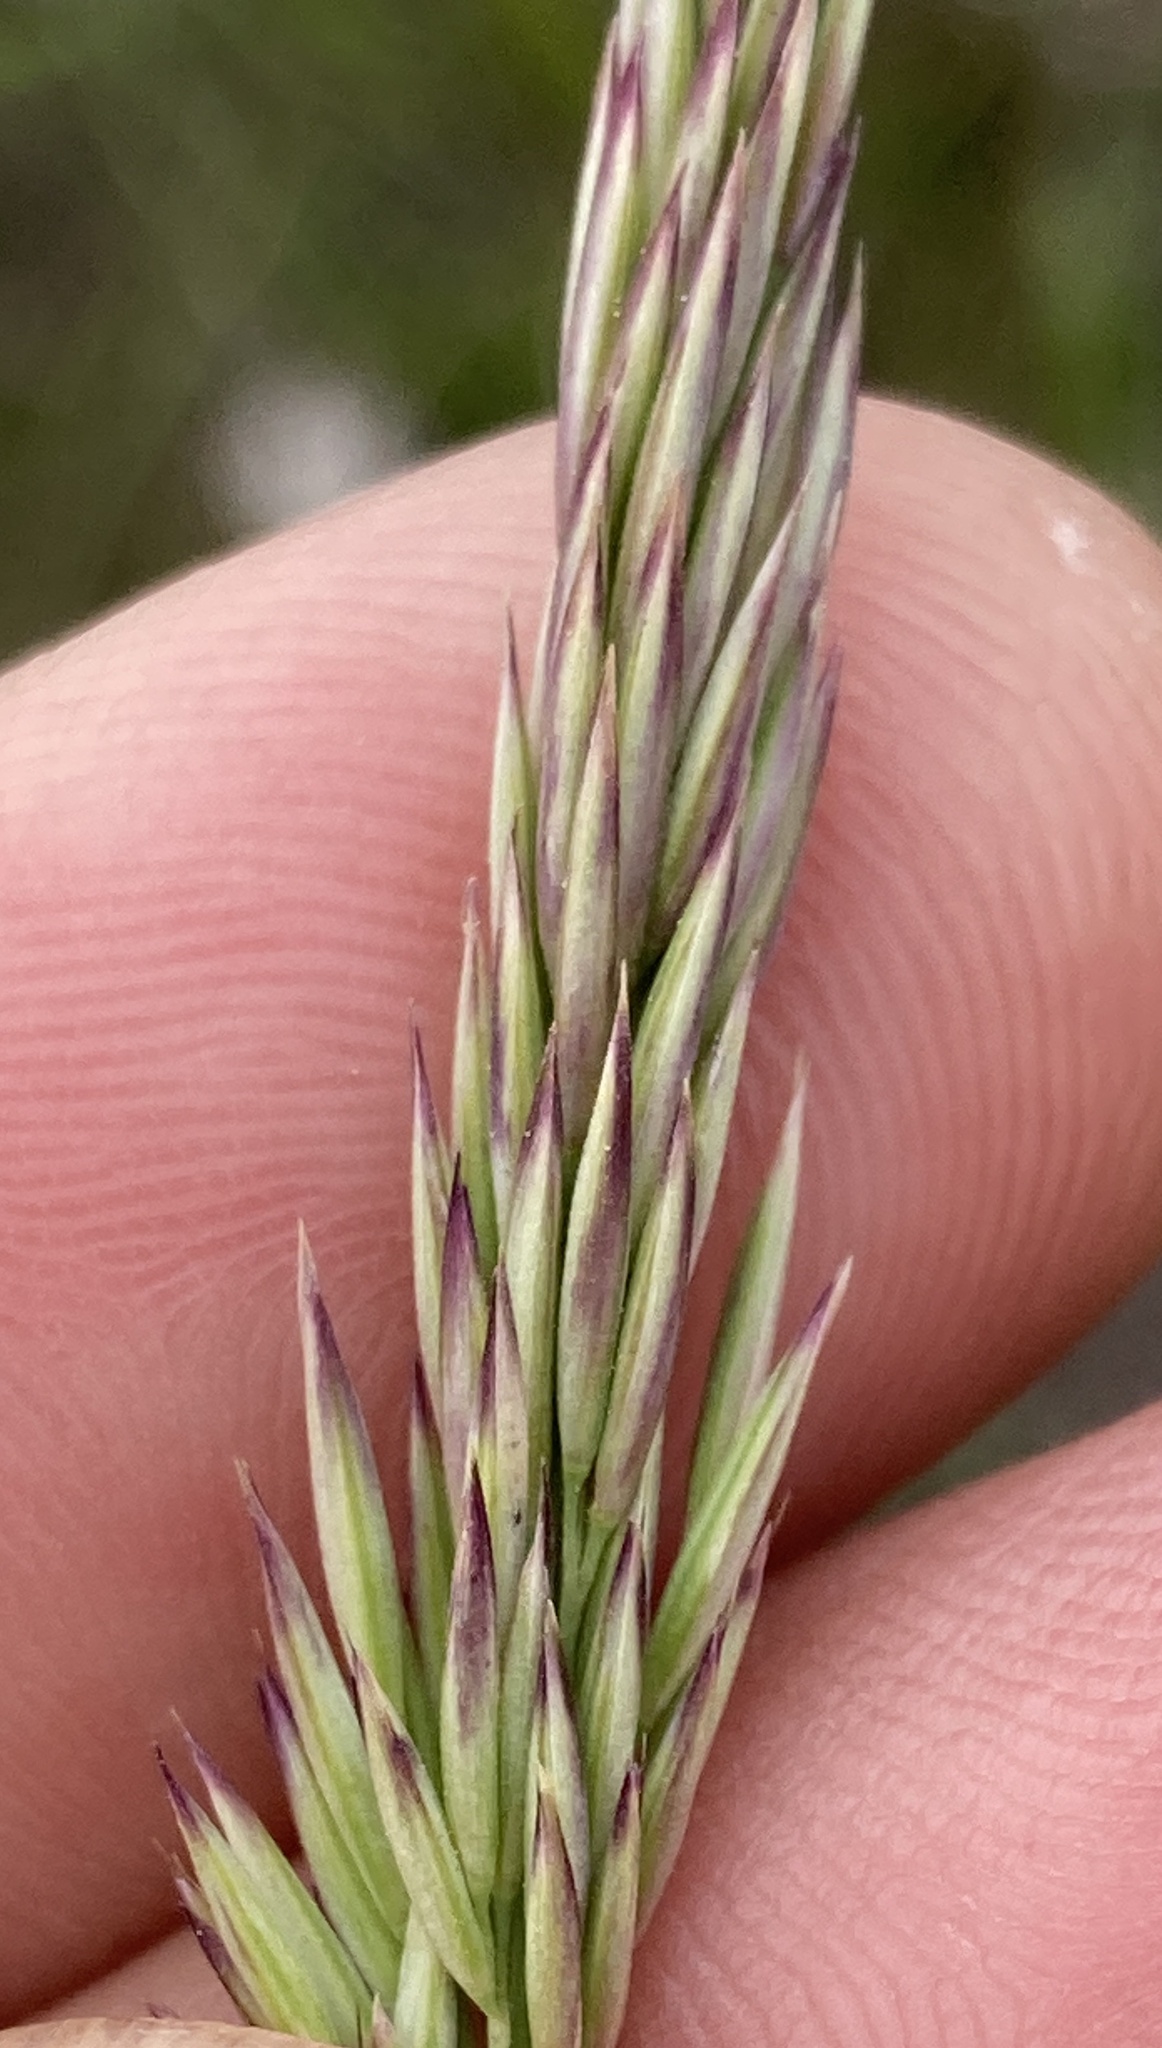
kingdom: Plantae
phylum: Tracheophyta
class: Liliopsida
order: Poales
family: Poaceae
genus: Calamagrostis
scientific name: Calamagrostis ophitidis
